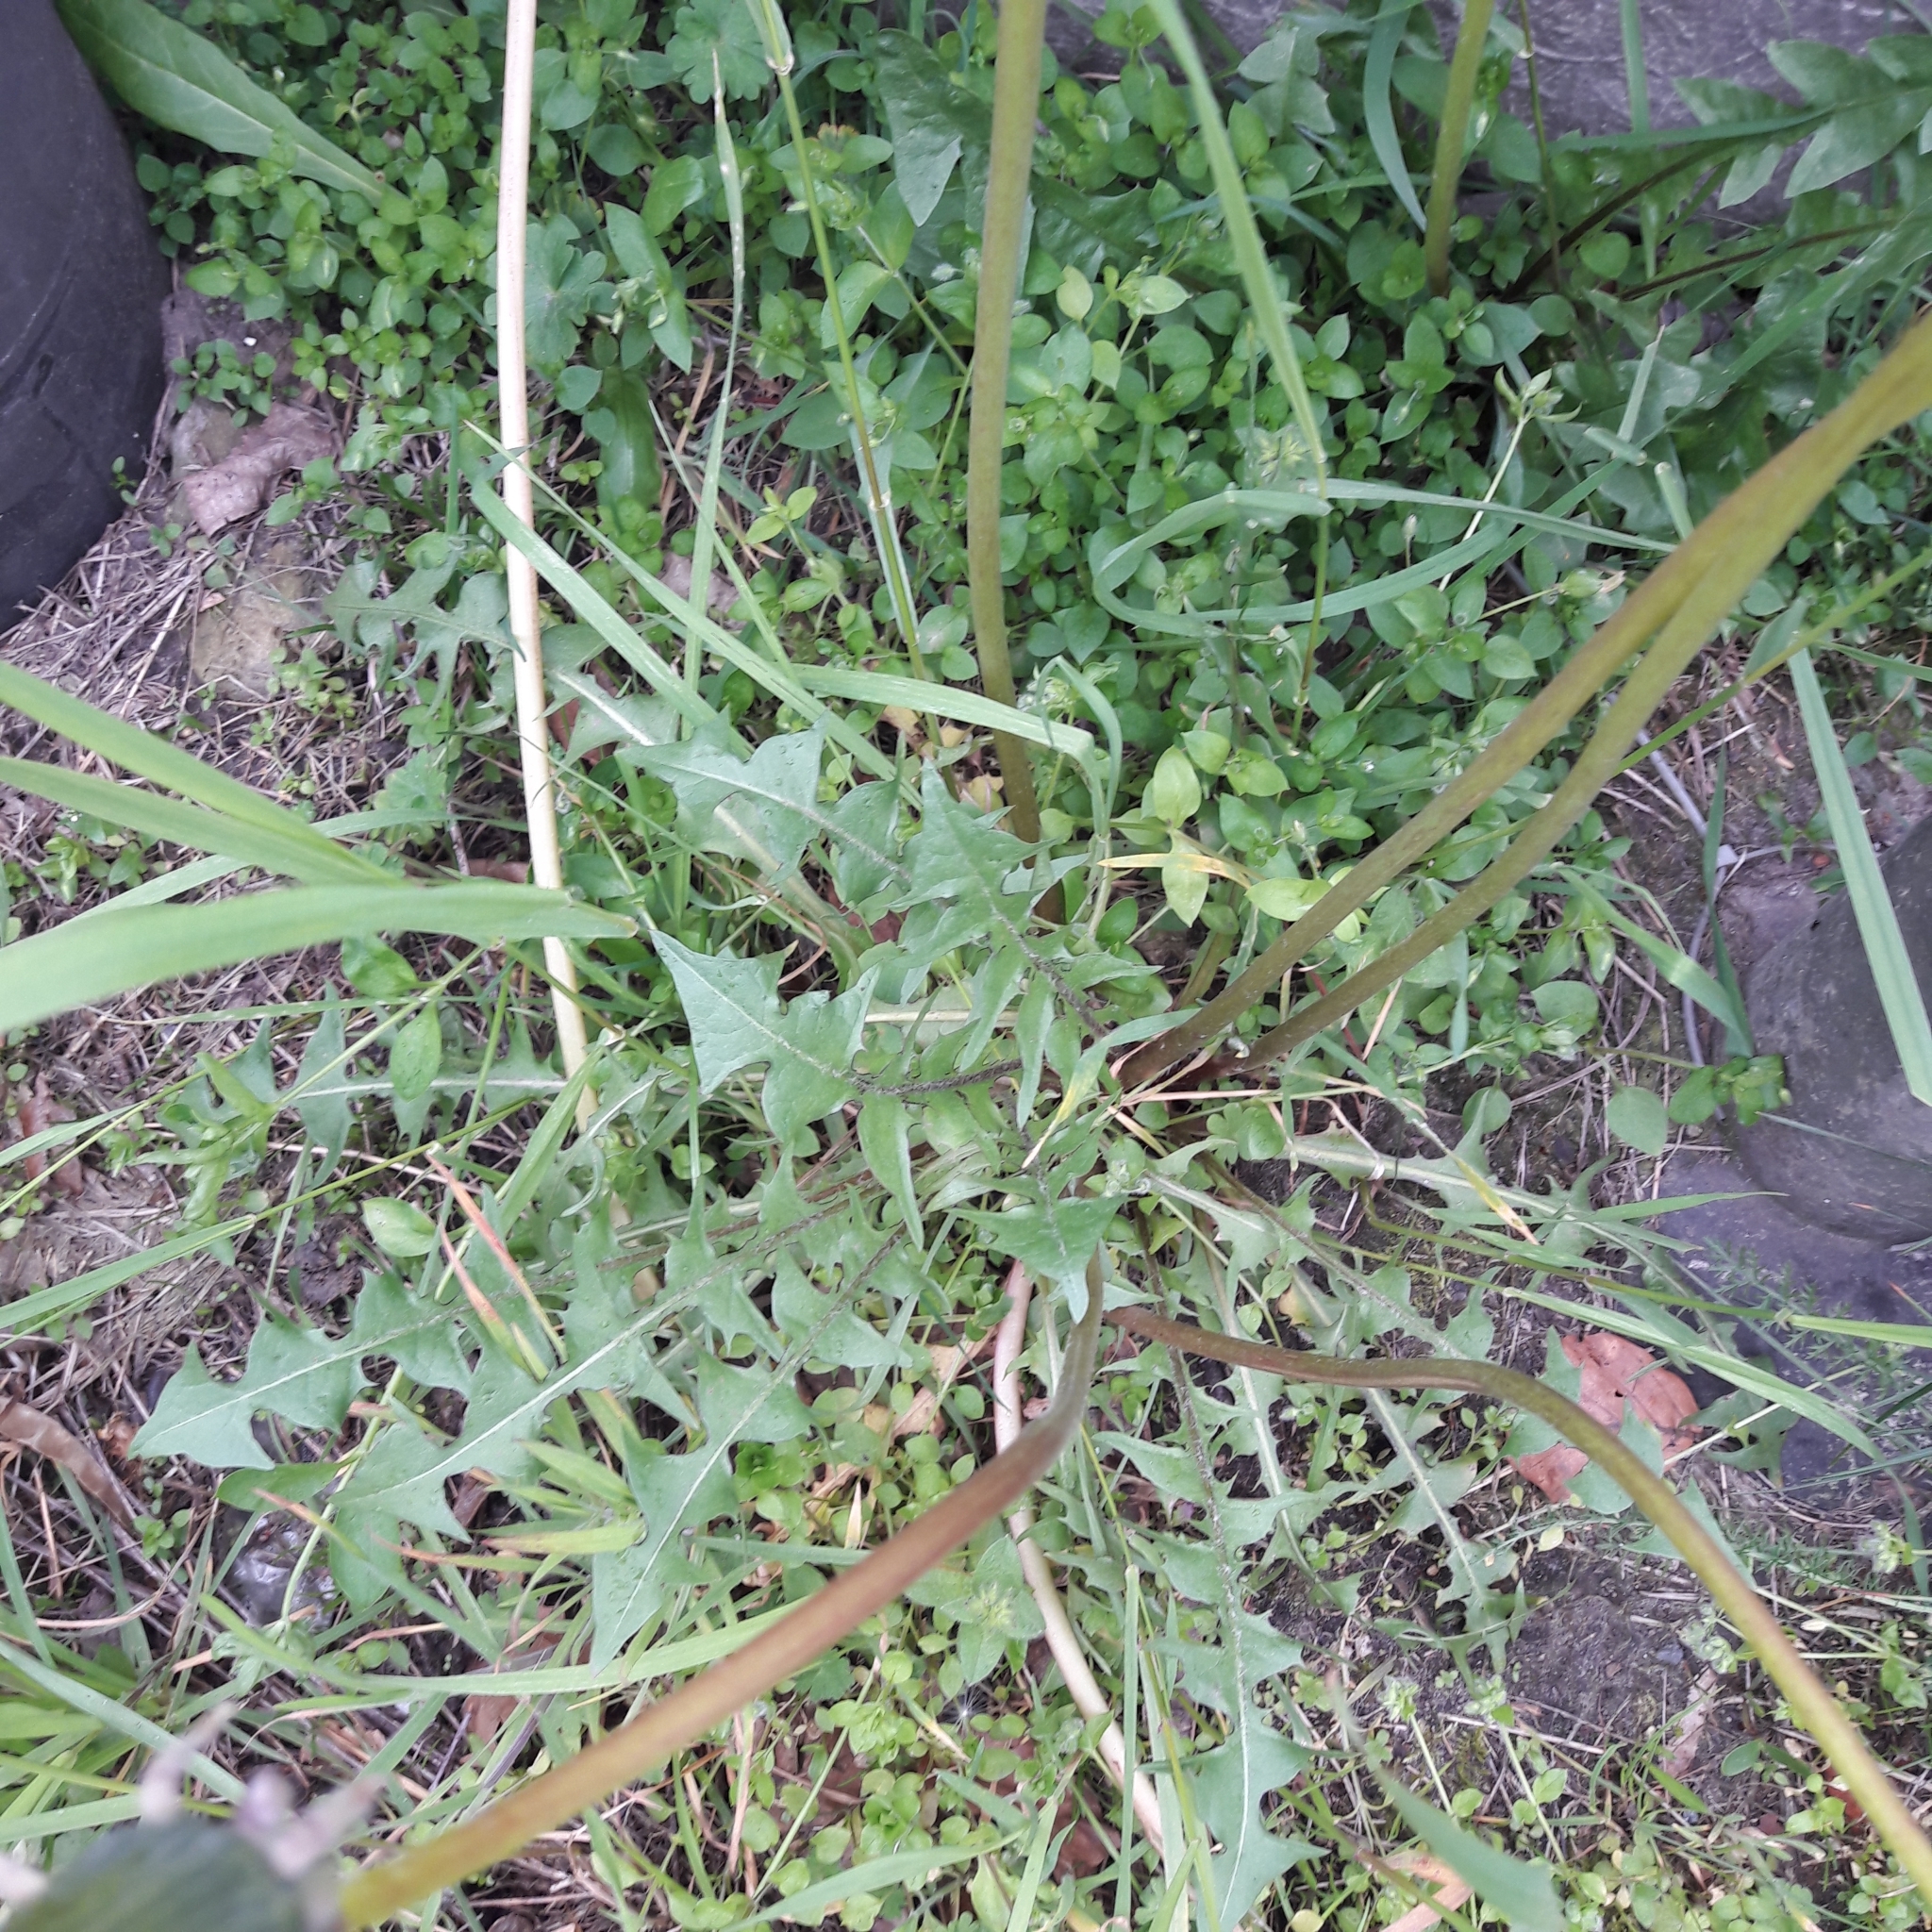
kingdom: Plantae
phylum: Tracheophyta
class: Magnoliopsida
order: Asterales
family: Asteraceae
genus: Taraxacum
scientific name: Taraxacum officinale
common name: Common dandelion
